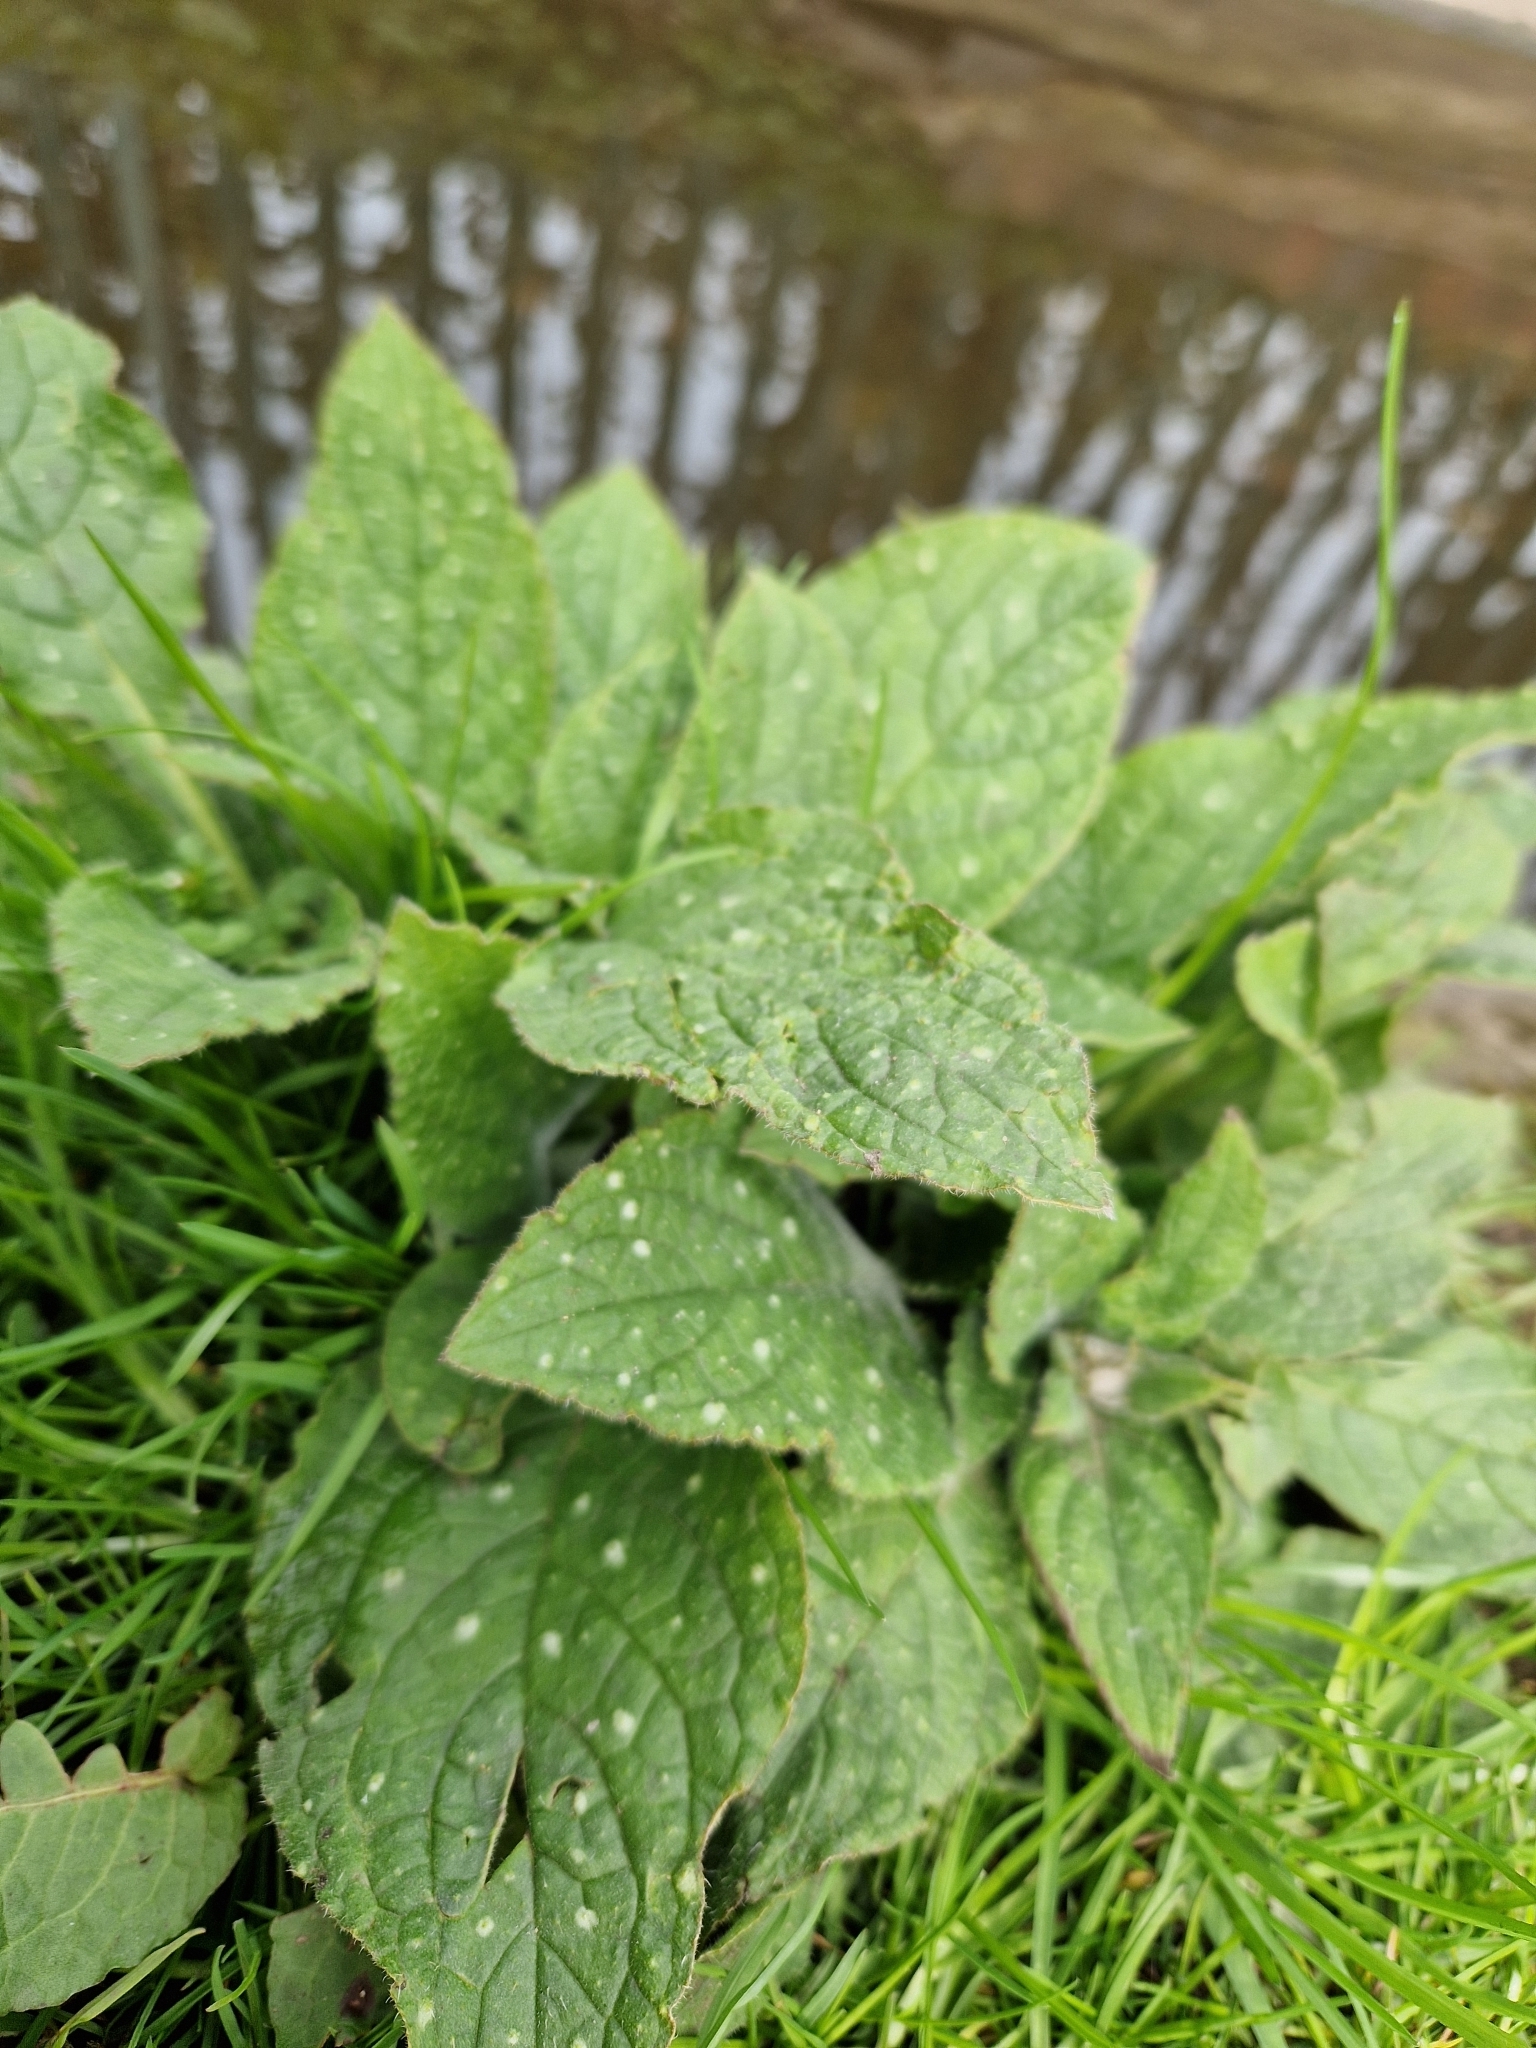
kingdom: Plantae
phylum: Tracheophyta
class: Magnoliopsida
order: Boraginales
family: Boraginaceae
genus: Pentaglottis
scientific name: Pentaglottis sempervirens
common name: Green alkanet
